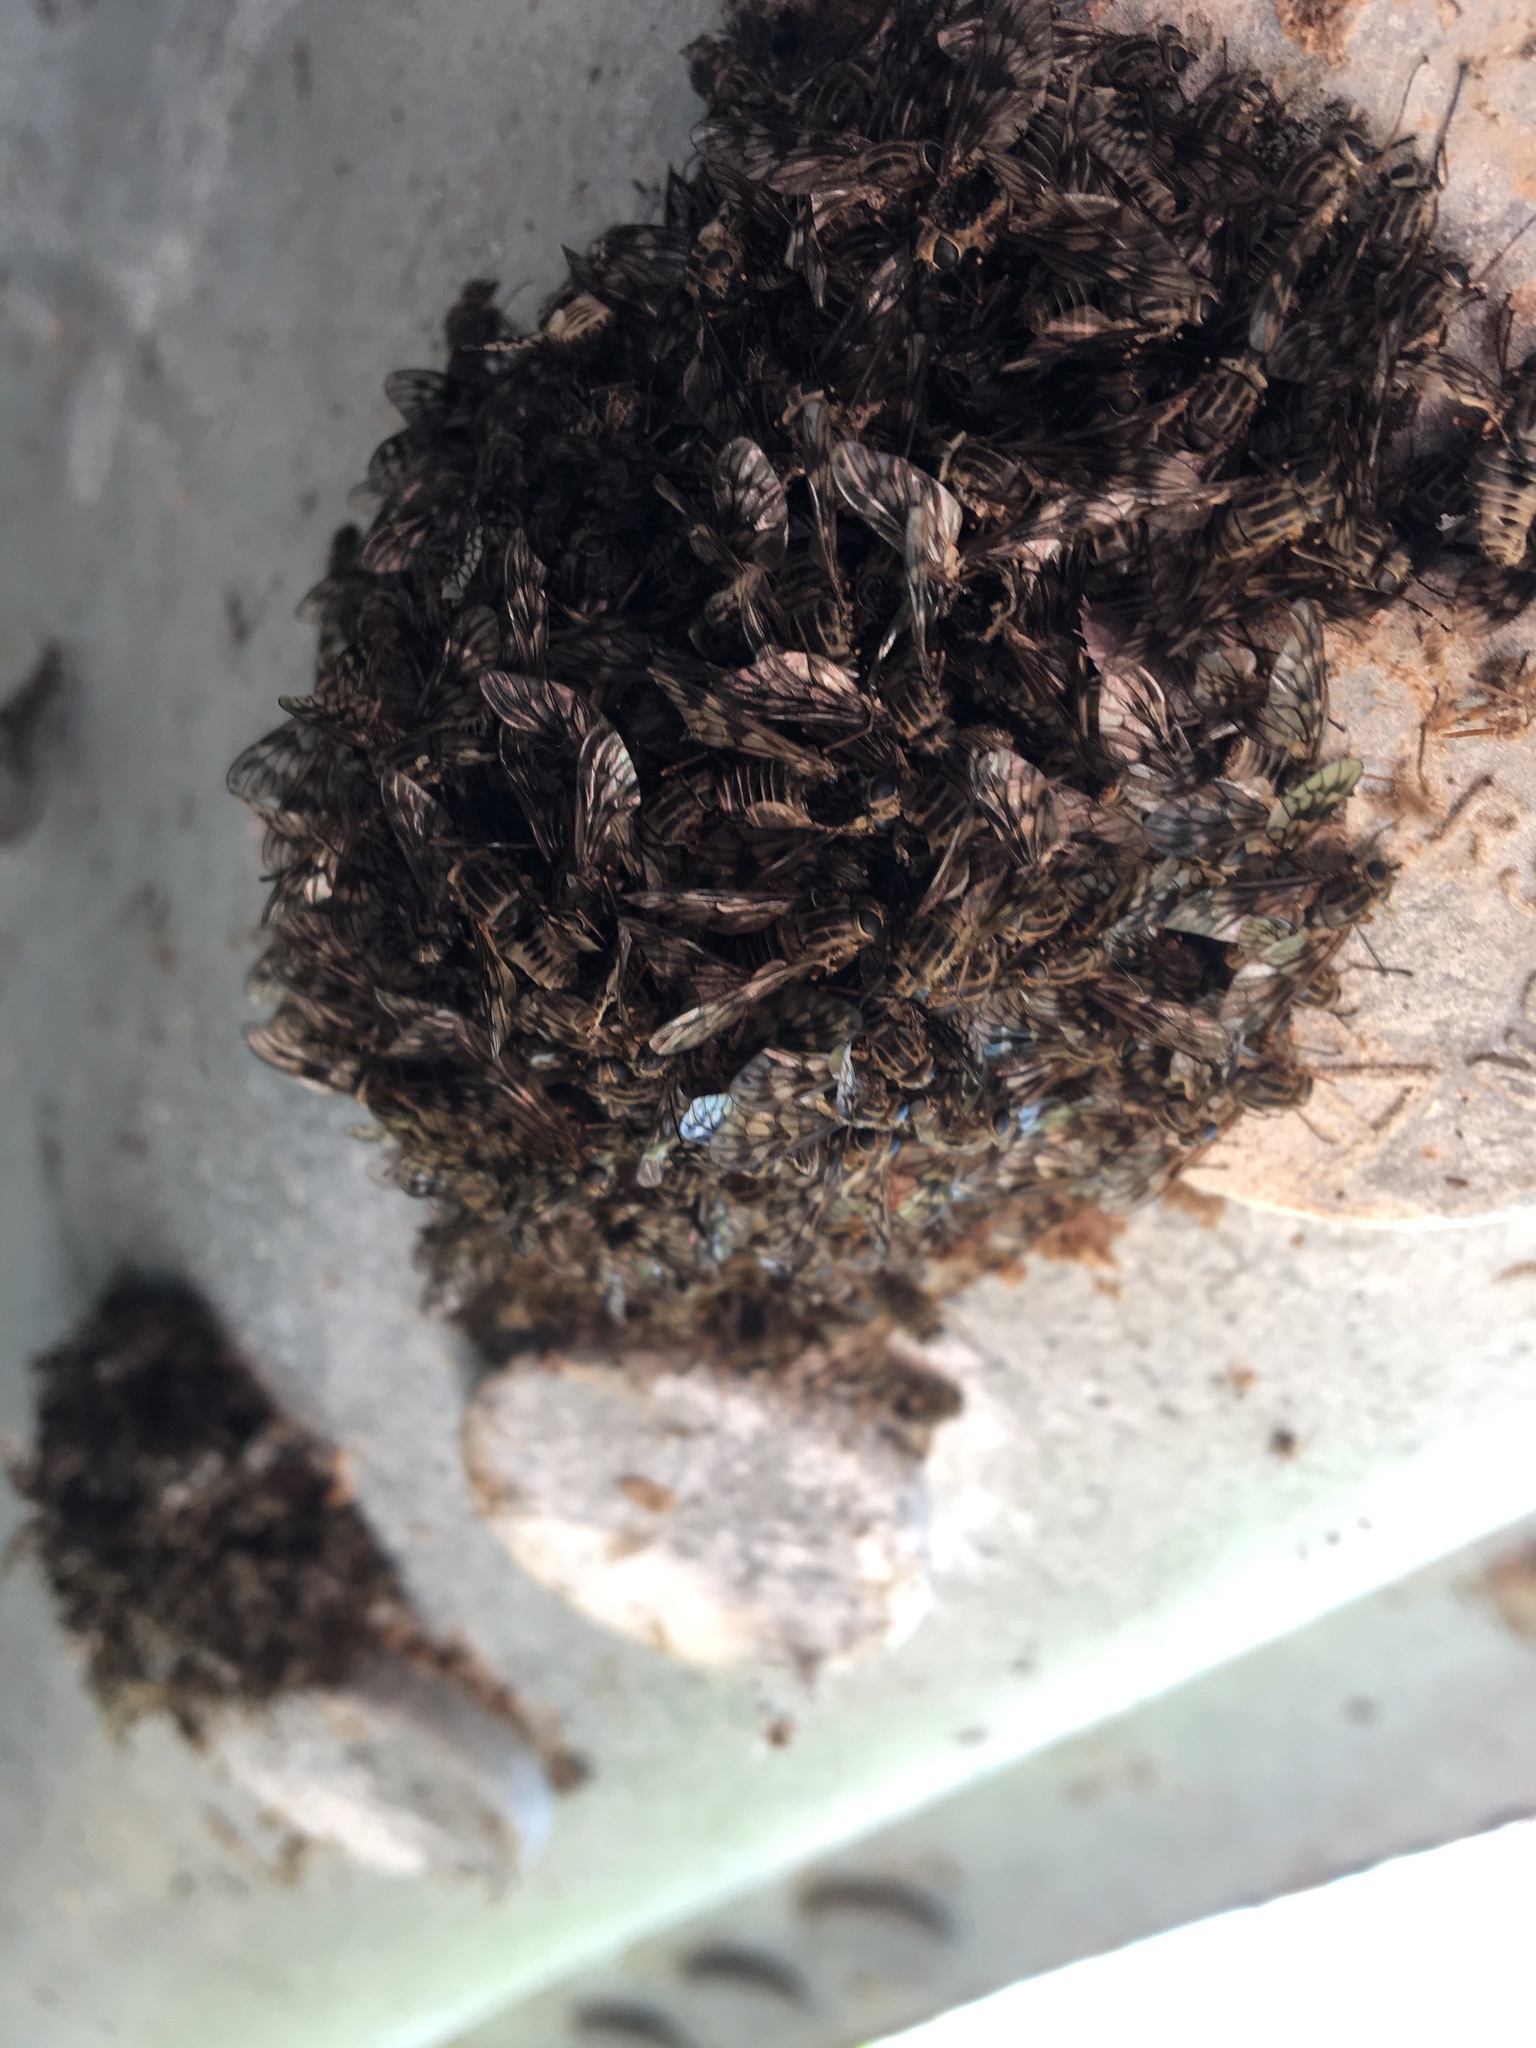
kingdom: Animalia
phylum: Arthropoda
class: Insecta
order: Diptera
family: Athericidae
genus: Atherix
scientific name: Atherix ibis
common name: Yellow-legged water-snipefly
